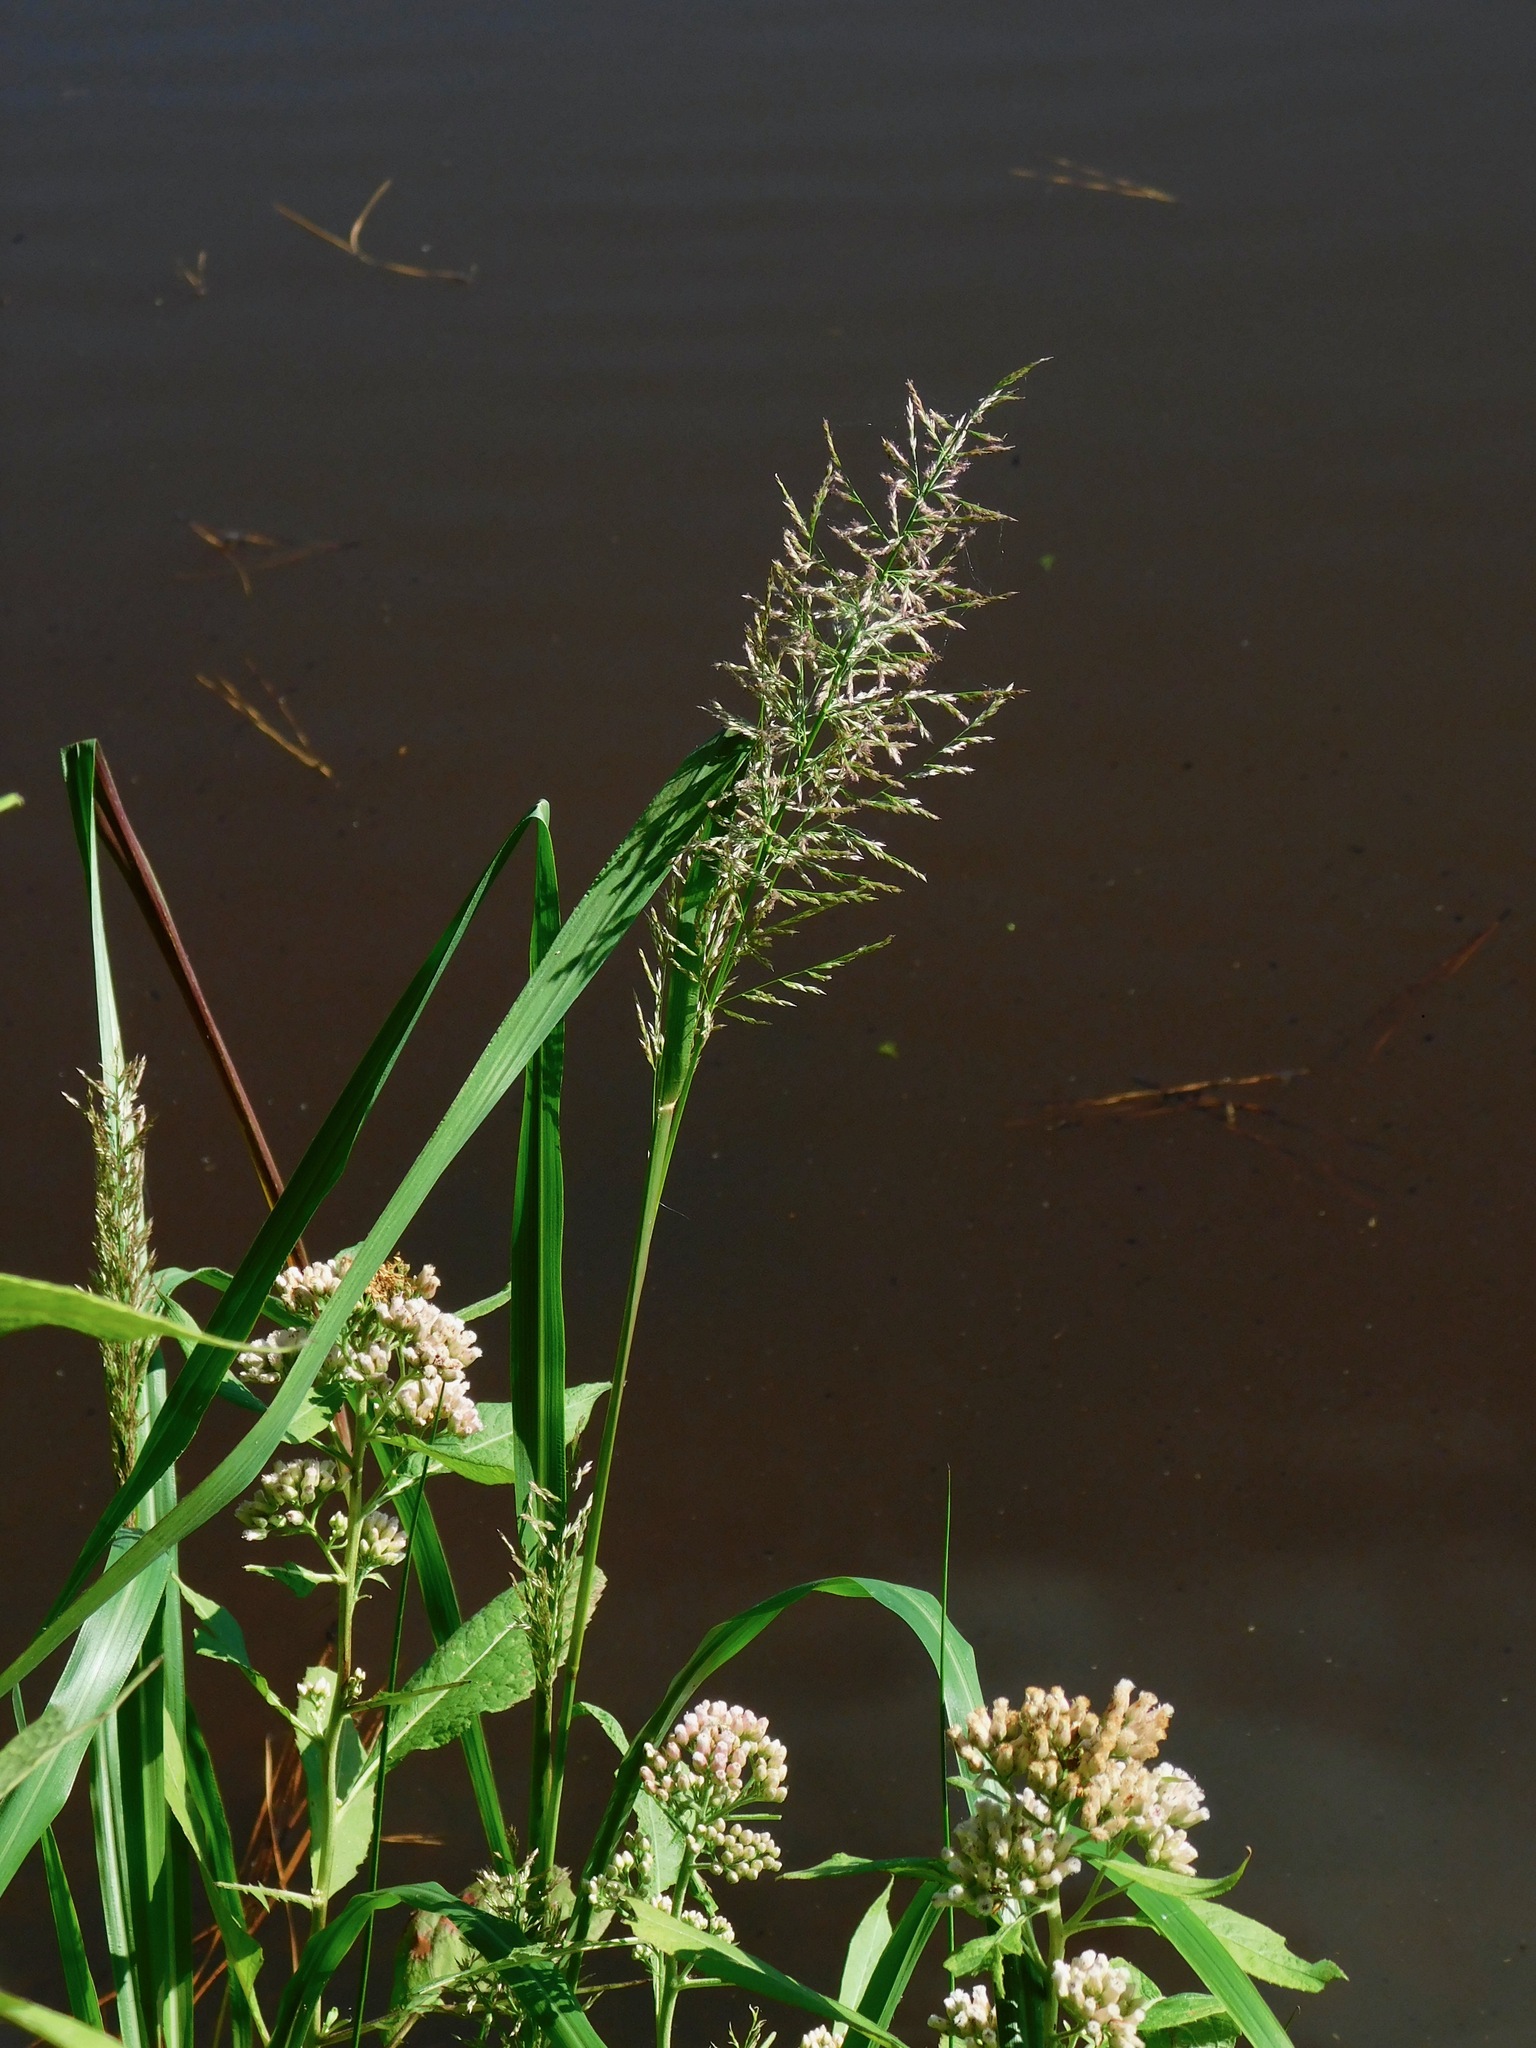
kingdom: Plantae
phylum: Tracheophyta
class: Liliopsida
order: Poales
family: Poaceae
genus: Coleataenia
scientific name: Coleataenia rigidula
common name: Redtop panicgrass
